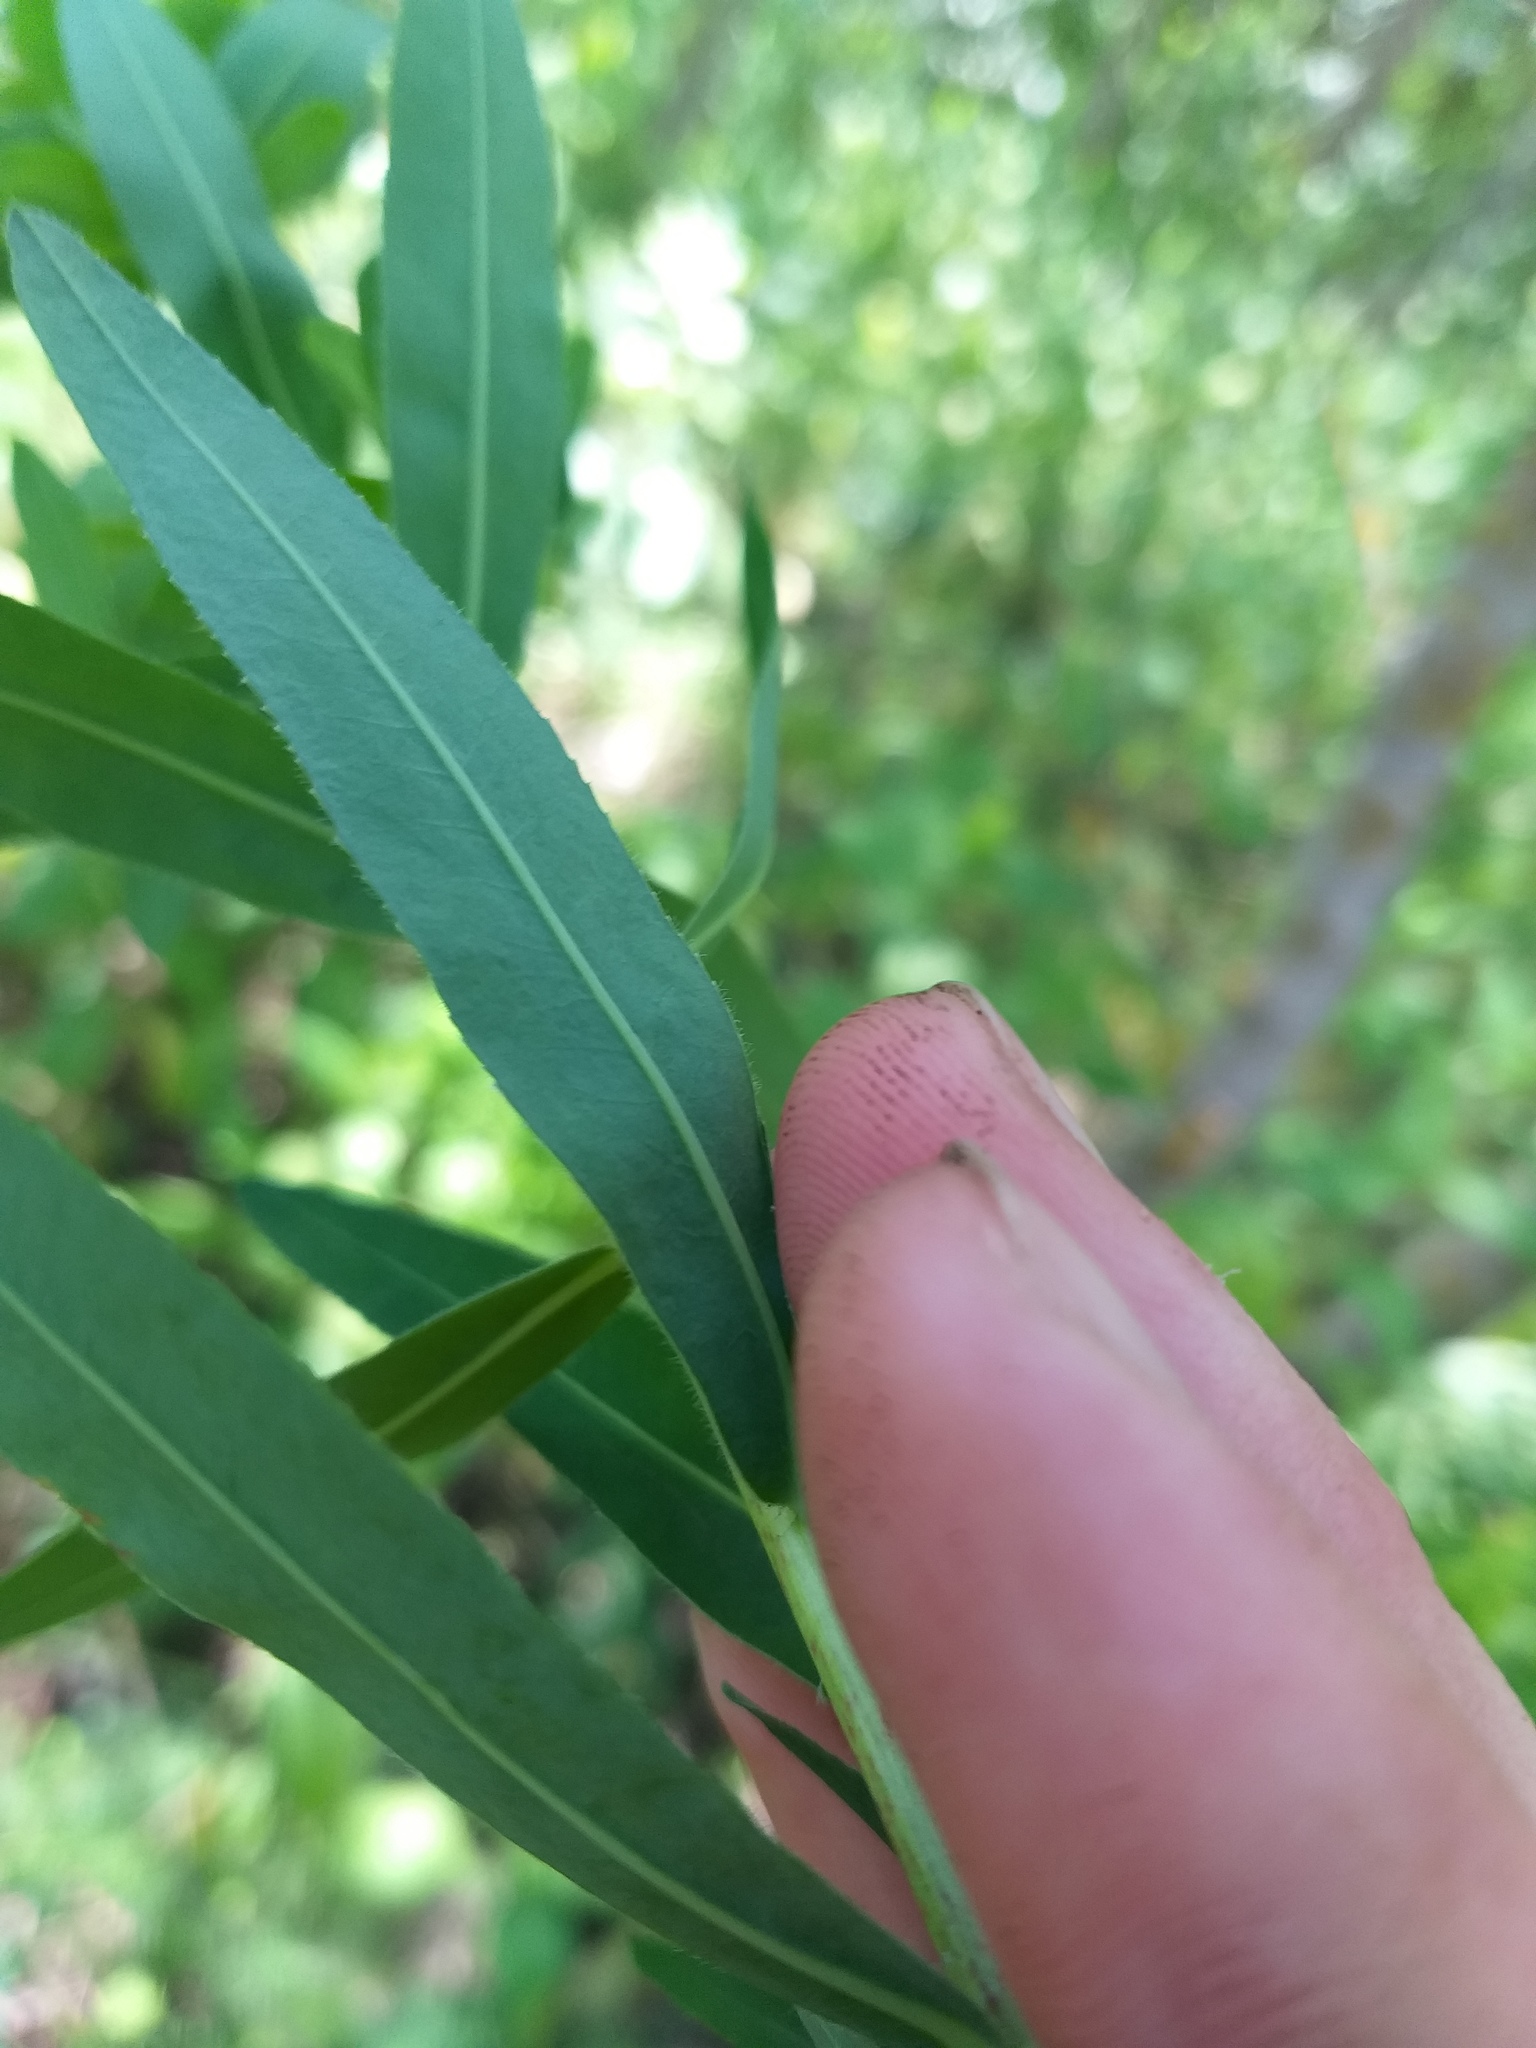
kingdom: Plantae
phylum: Tracheophyta
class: Magnoliopsida
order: Malpighiales
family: Euphorbiaceae
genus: Euphorbia
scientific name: Euphorbia semivillosa
